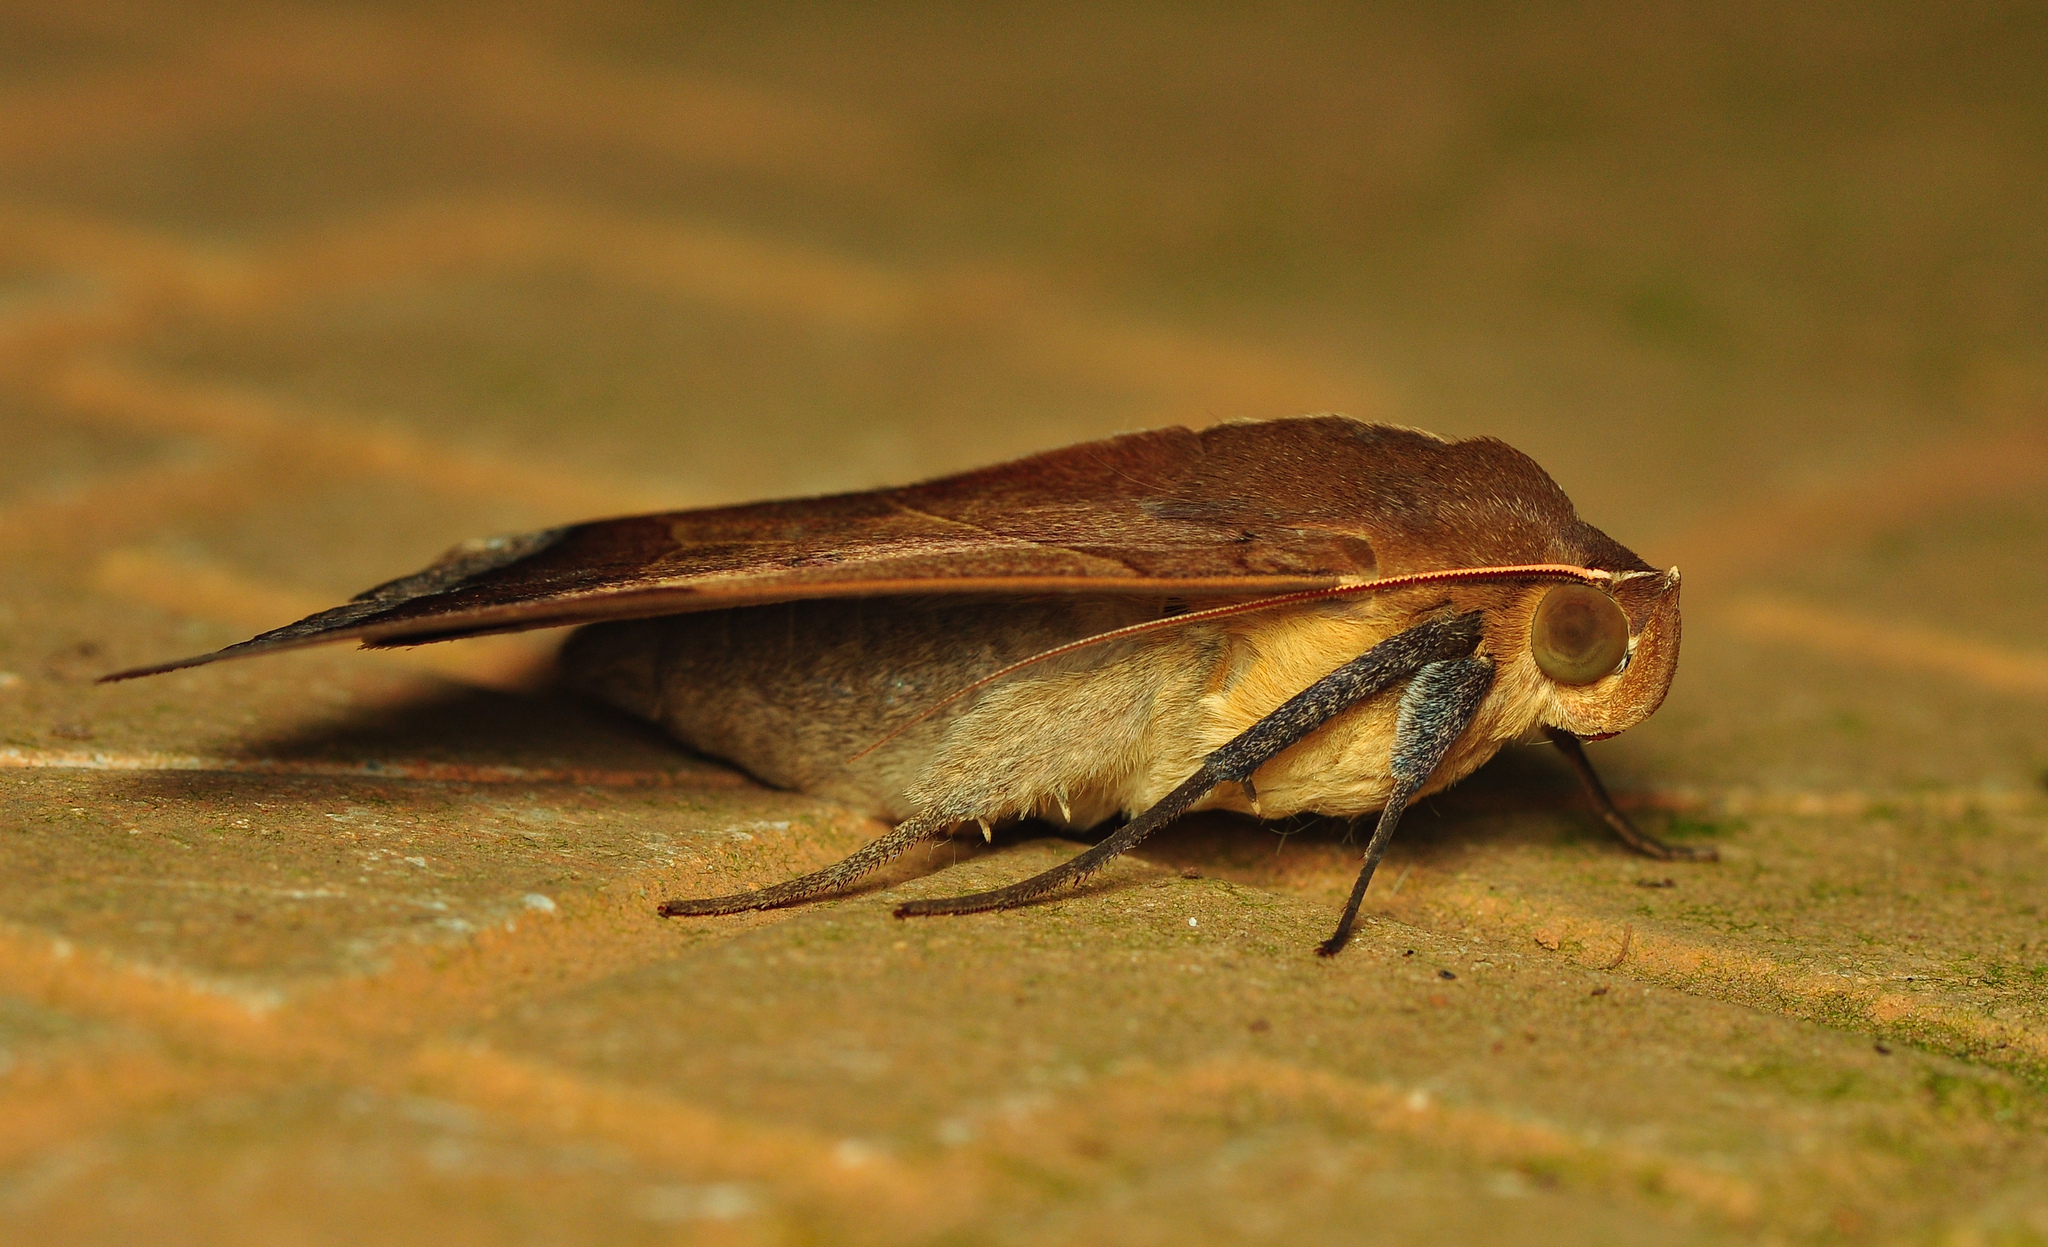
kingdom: Animalia
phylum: Arthropoda
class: Insecta
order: Lepidoptera
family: Erebidae
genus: Artena
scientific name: Artena dotata
